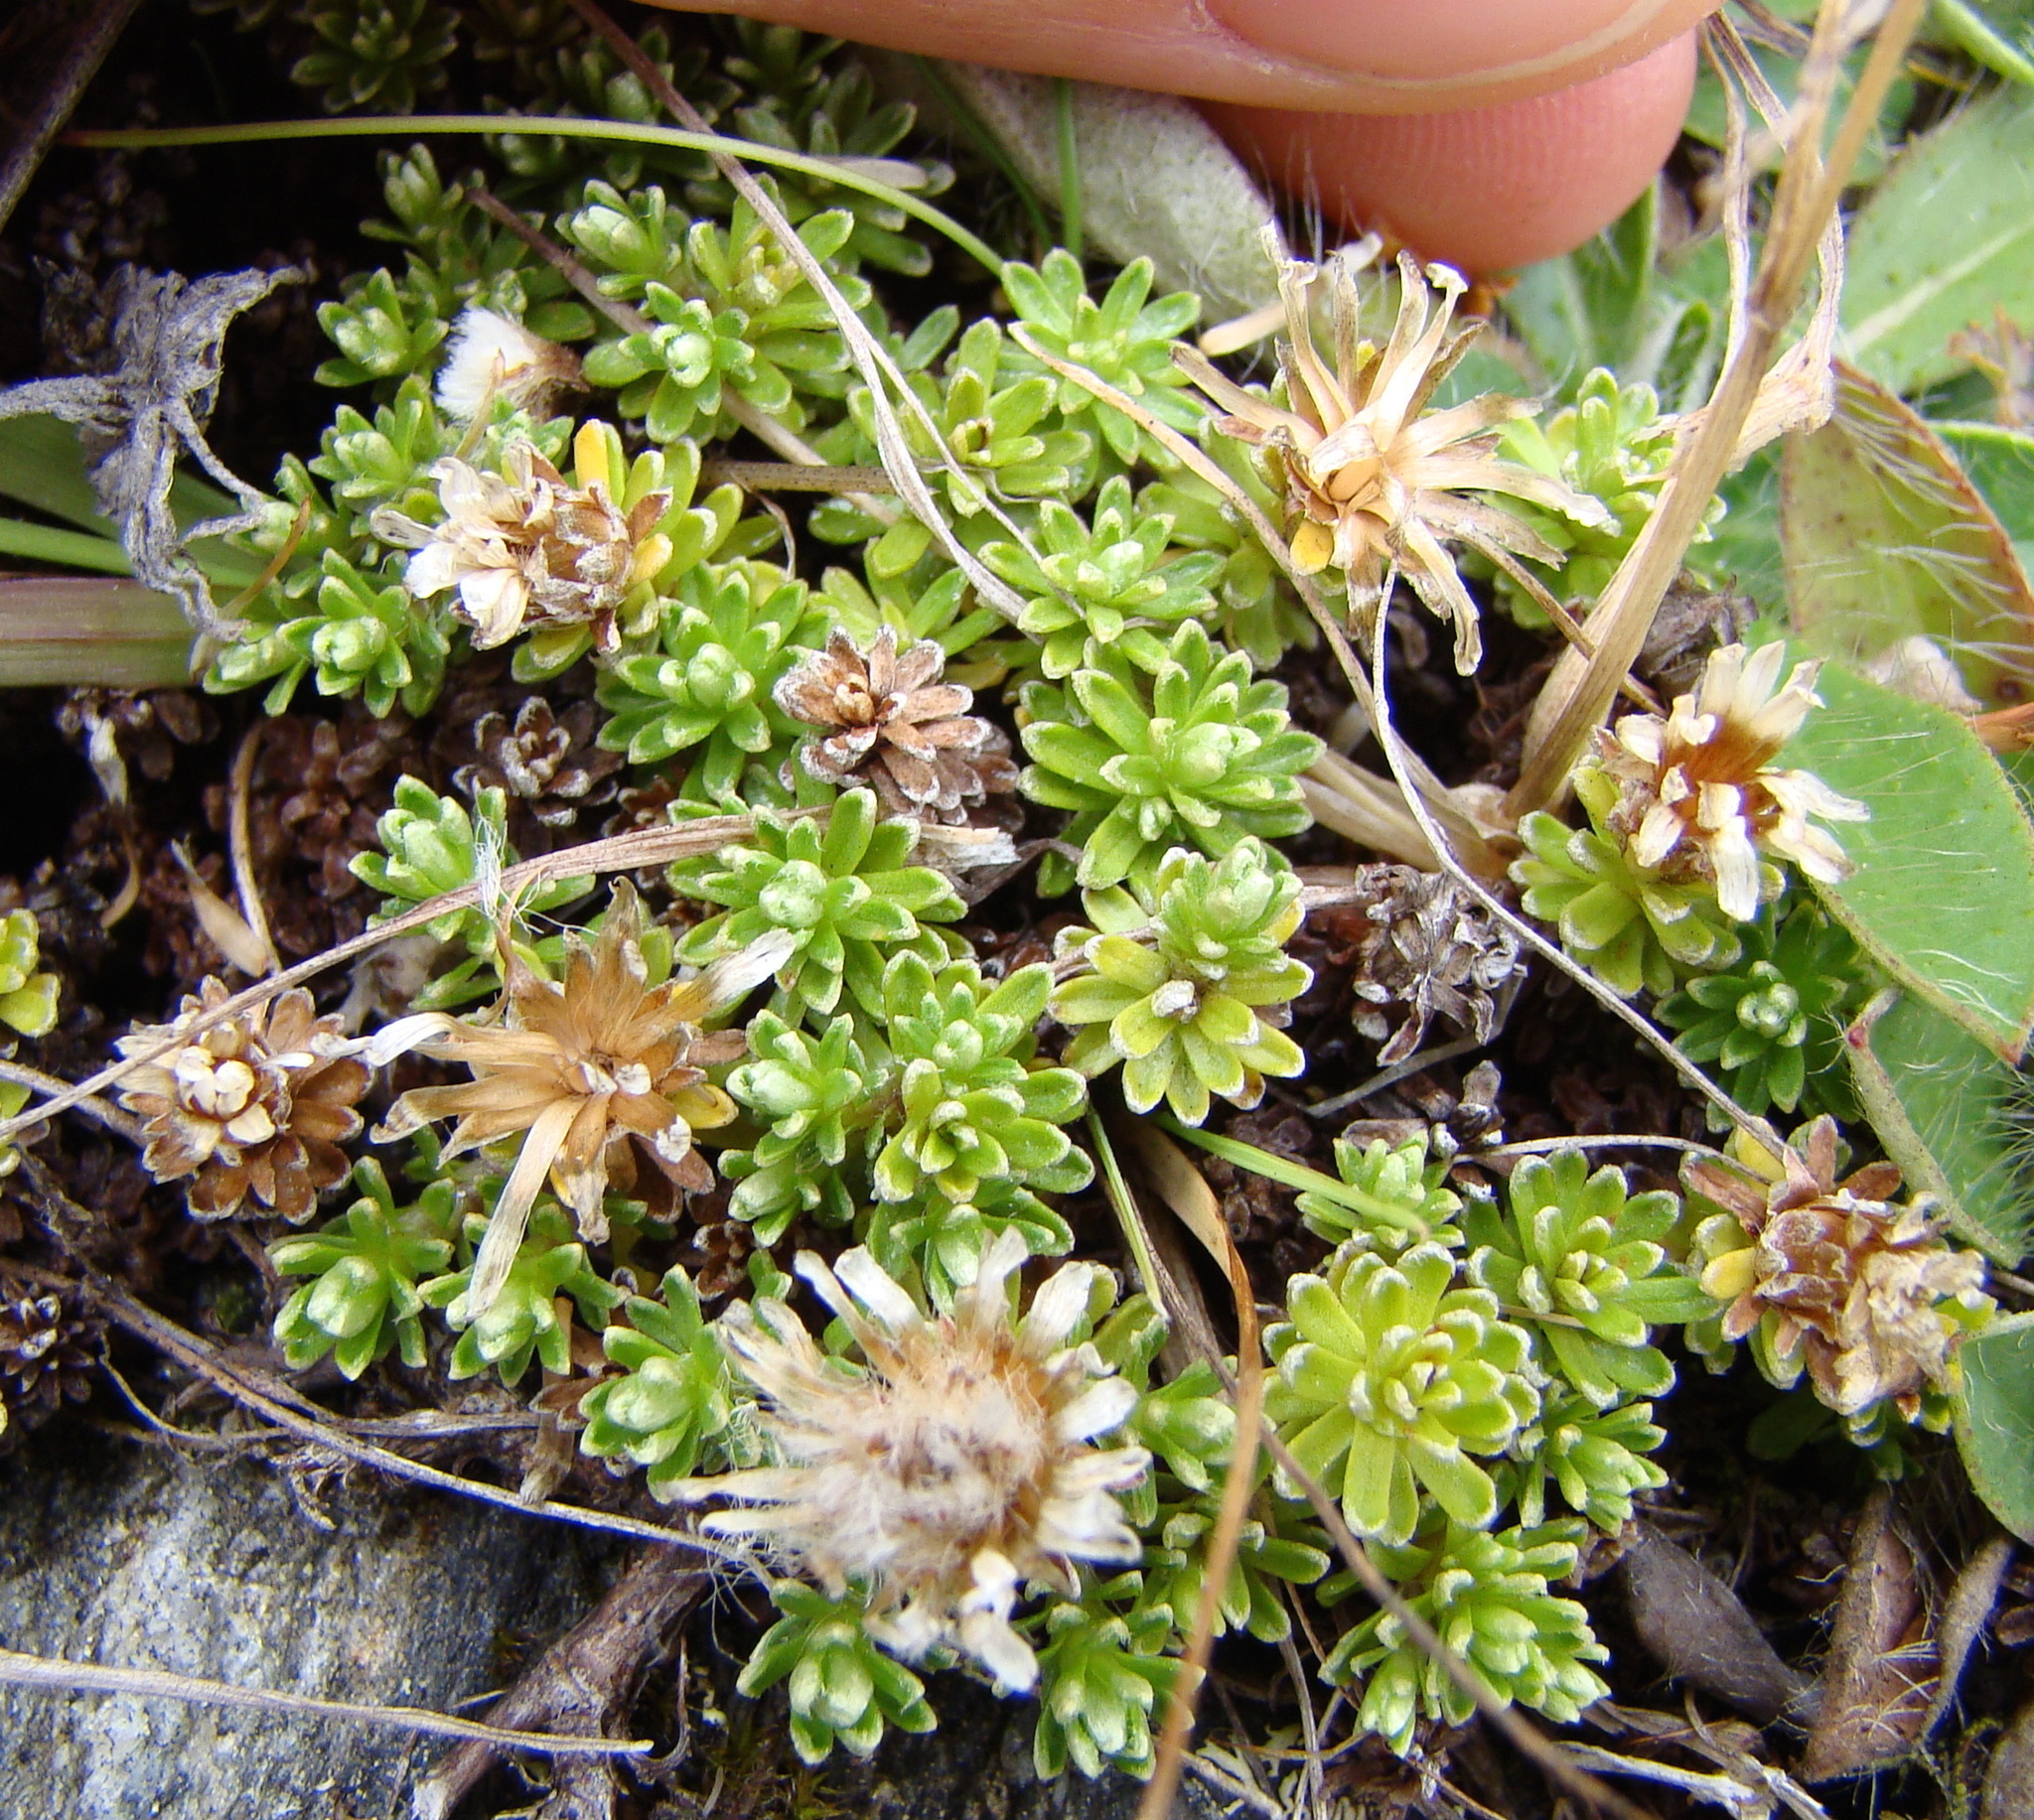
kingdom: Plantae
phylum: Tracheophyta
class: Magnoliopsida
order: Asterales
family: Asteraceae
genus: Raoulia
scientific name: Raoulia subsericea
